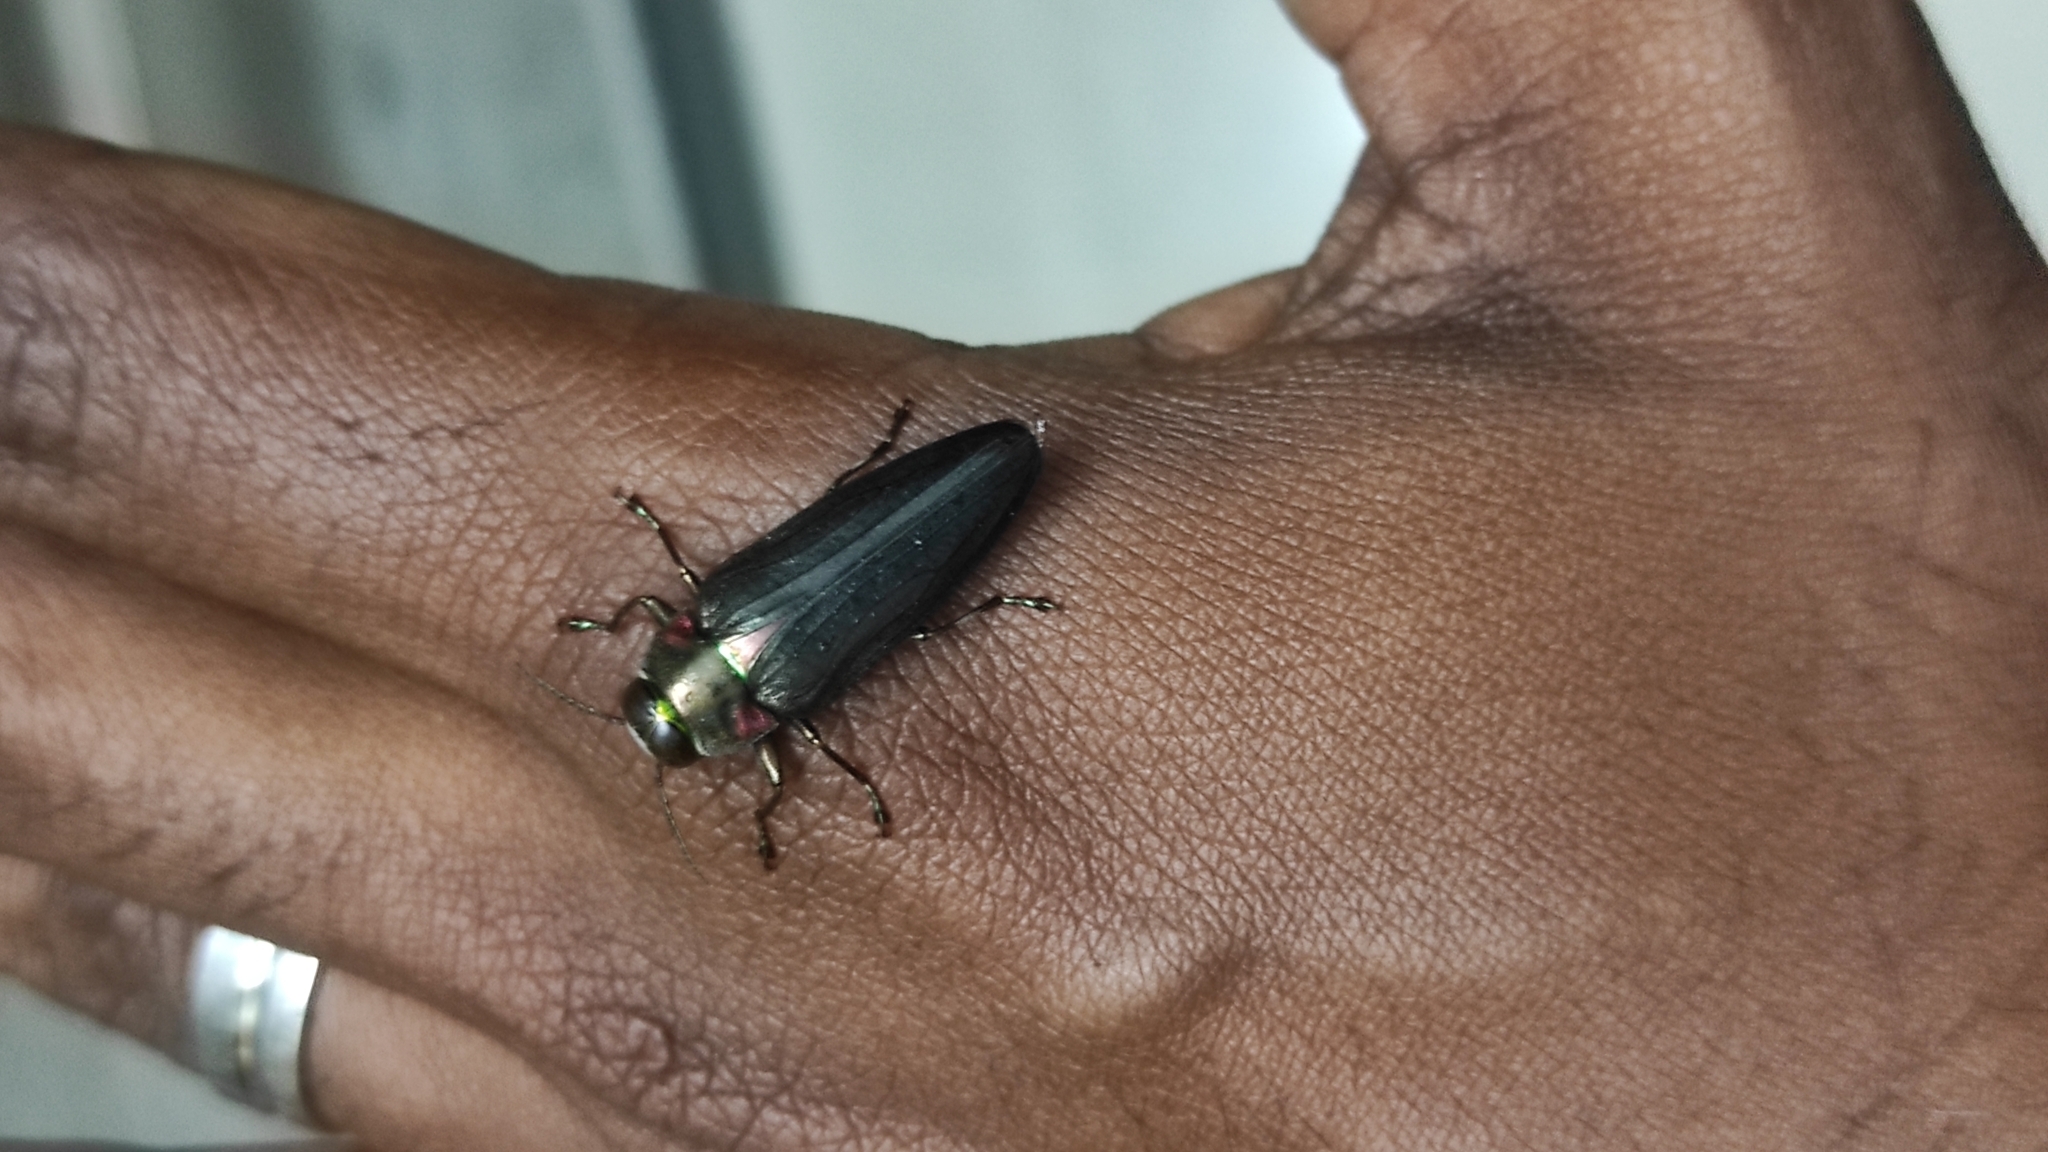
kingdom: Animalia
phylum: Arthropoda
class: Insecta
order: Coleoptera
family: Buprestidae
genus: Belionota
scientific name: Belionota prasina
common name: Jewel beetle
